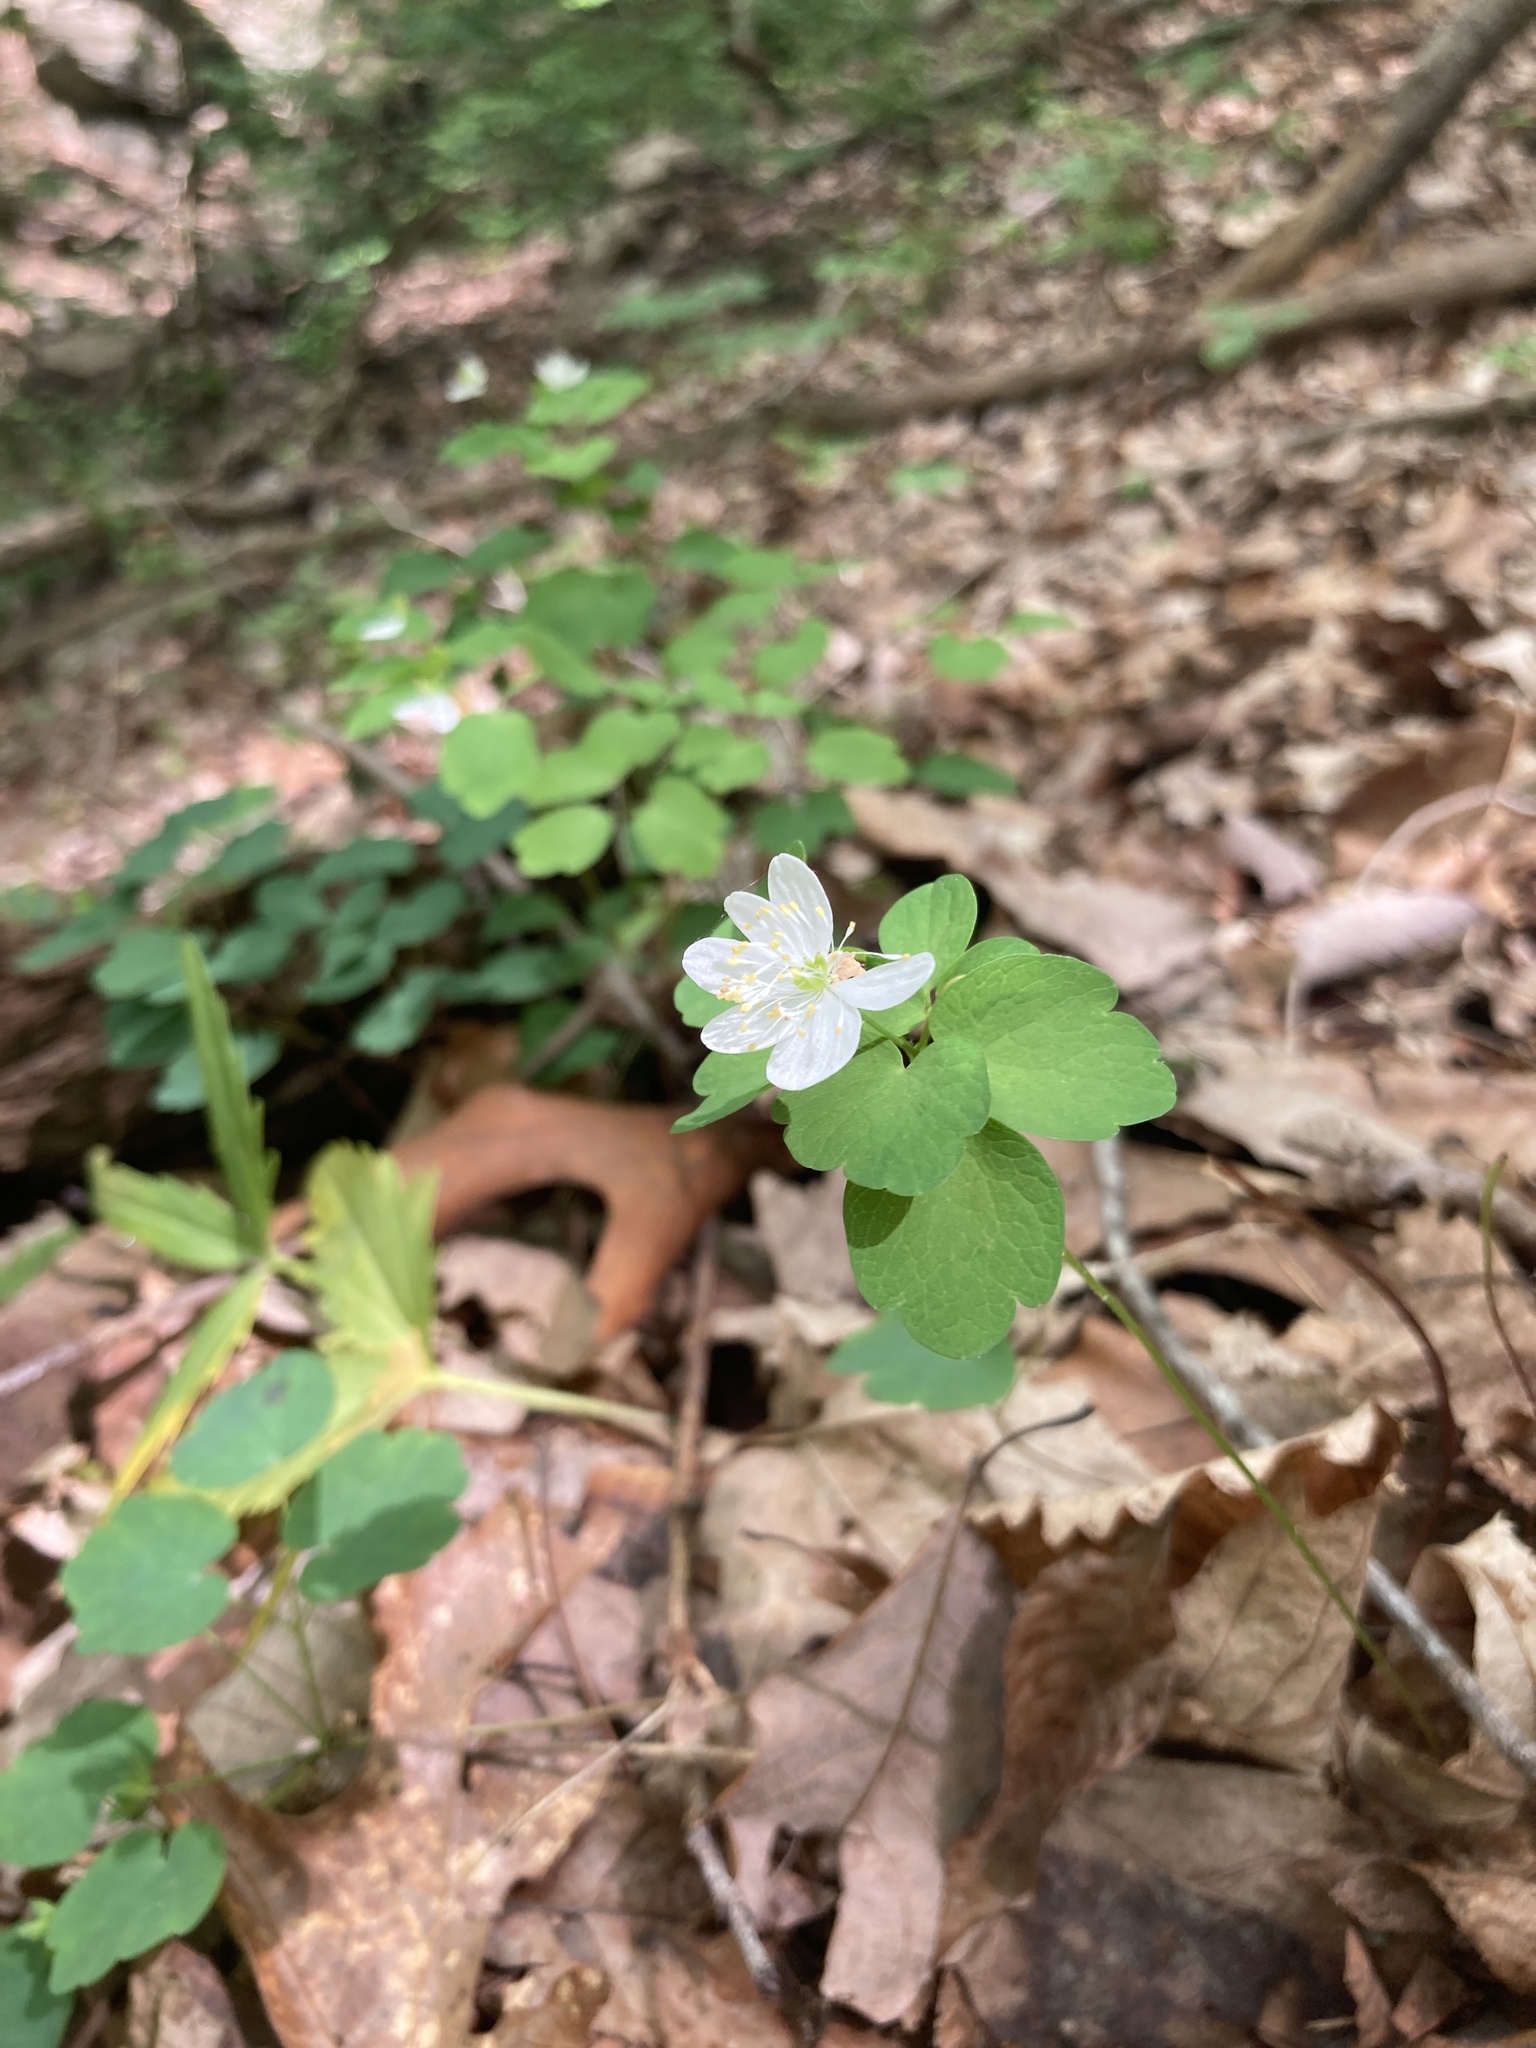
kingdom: Plantae
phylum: Tracheophyta
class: Magnoliopsida
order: Ranunculales
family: Ranunculaceae
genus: Thalictrum
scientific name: Thalictrum thalictroides
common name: Rue-anemone
